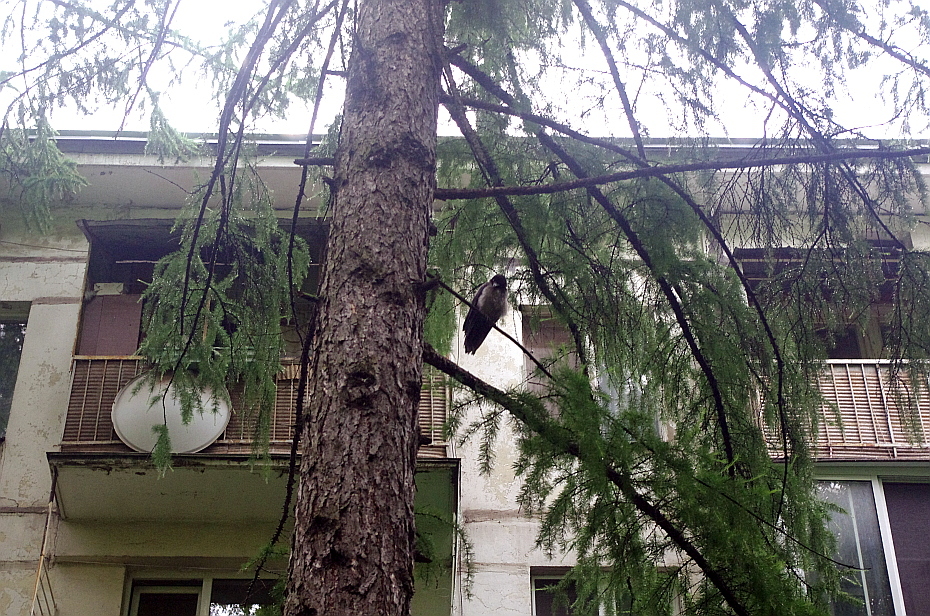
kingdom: Animalia
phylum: Chordata
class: Aves
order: Passeriformes
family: Corvidae
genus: Corvus
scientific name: Corvus cornix
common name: Hooded crow
